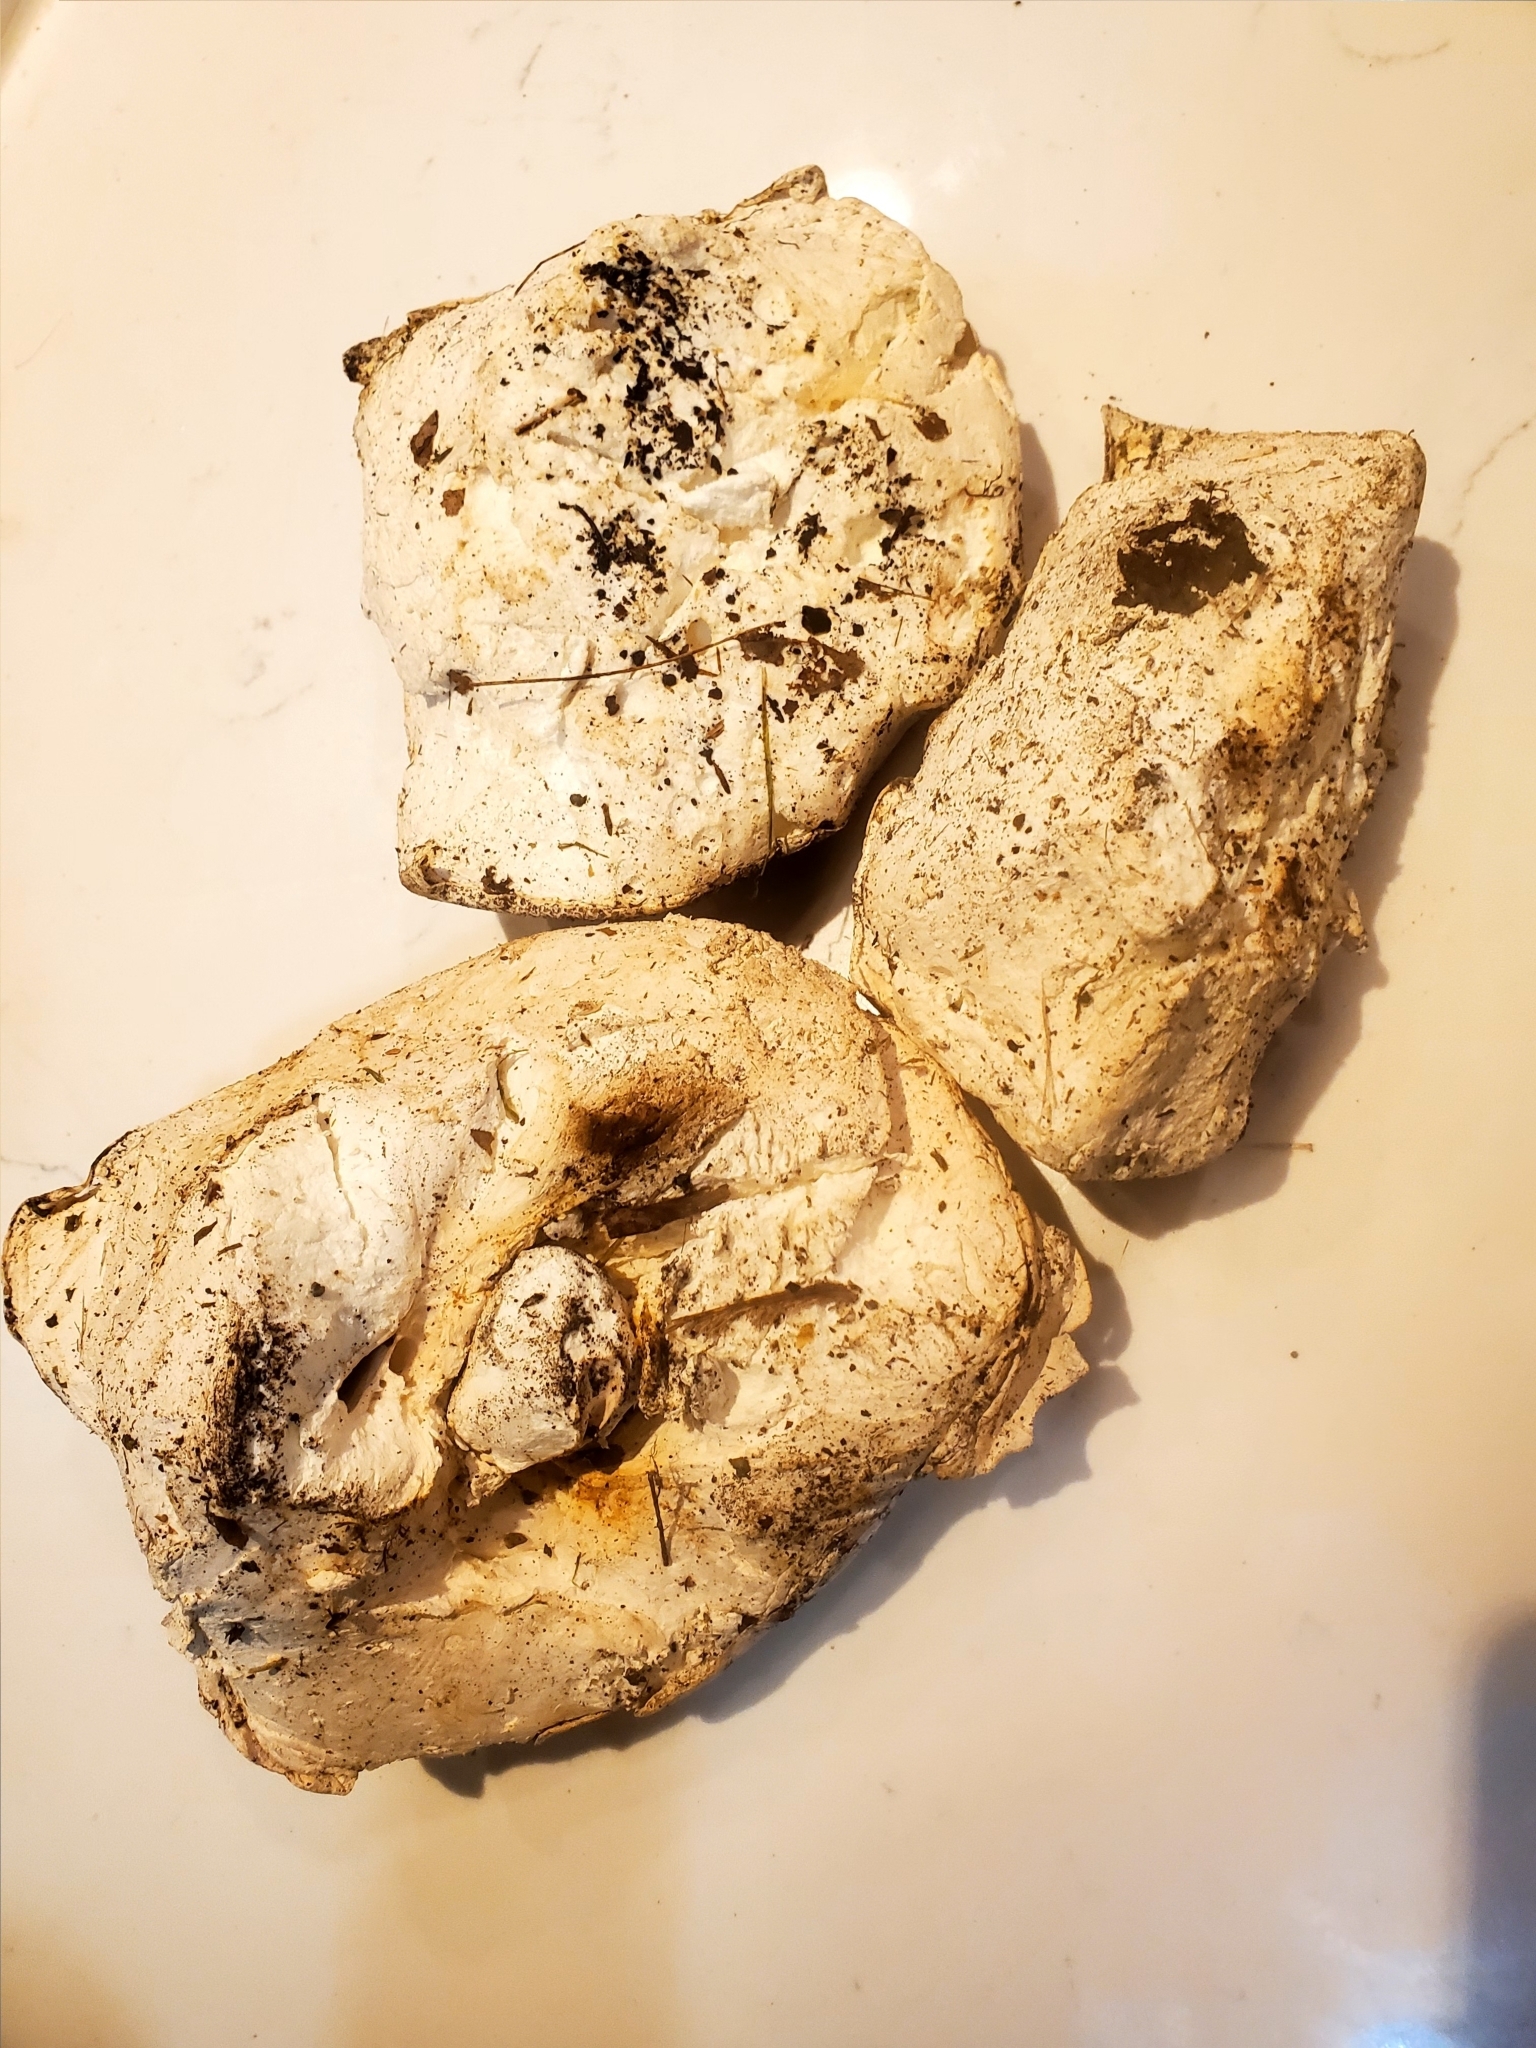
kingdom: Fungi
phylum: Basidiomycota
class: Agaricomycetes
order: Agaricales
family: Lycoperdaceae
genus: Calvatia
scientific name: Calvatia gigantea
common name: Giant puffball
